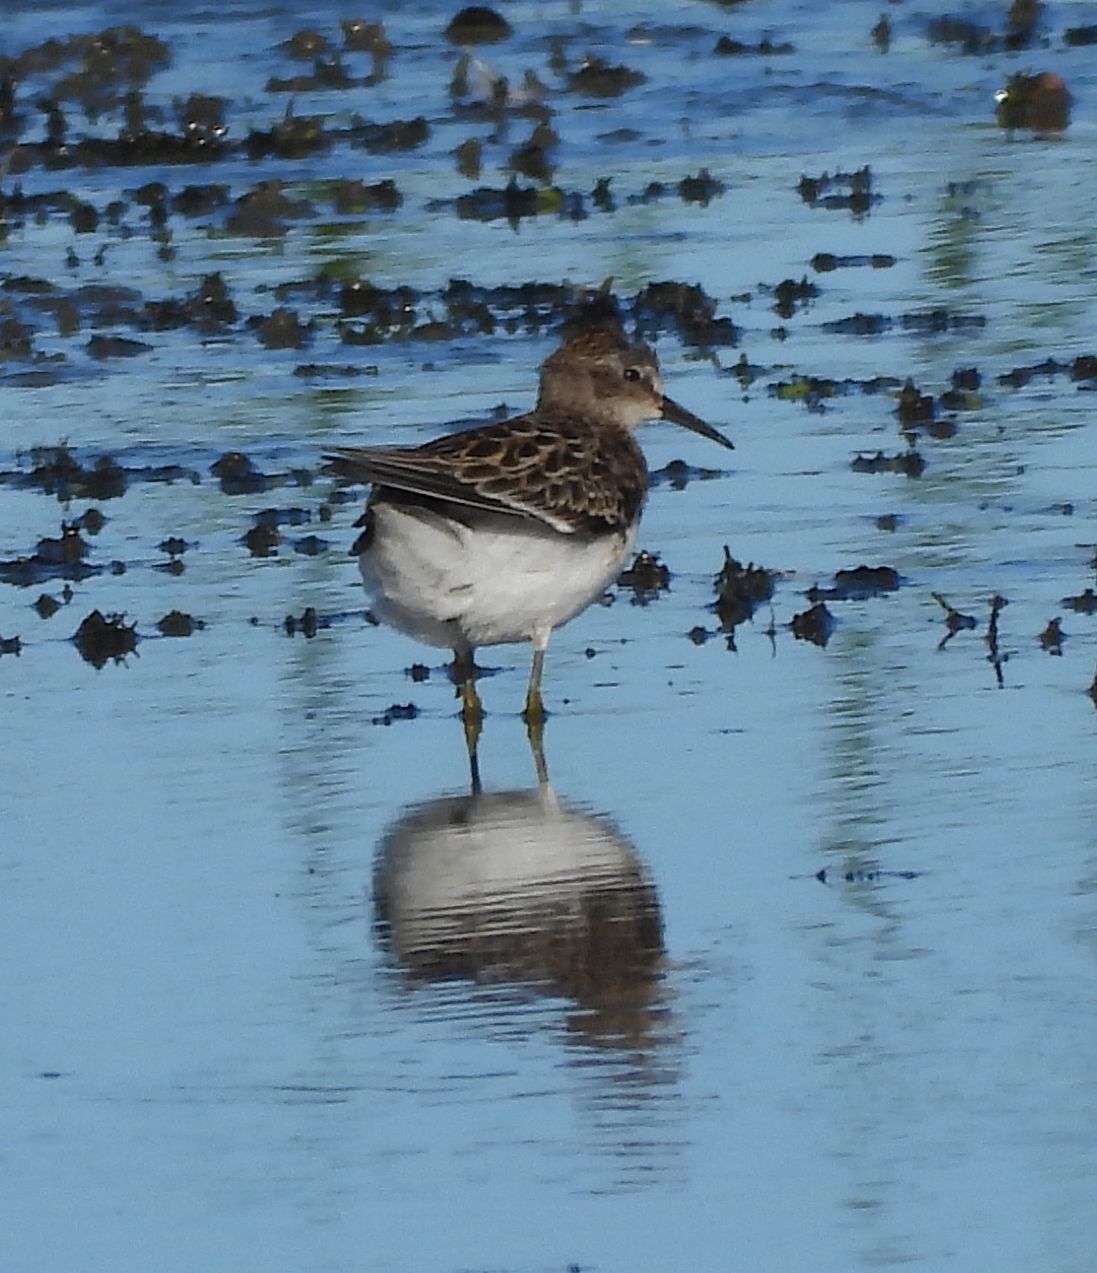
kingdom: Animalia
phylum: Chordata
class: Aves
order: Charadriiformes
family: Scolopacidae
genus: Calidris
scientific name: Calidris minutilla
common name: Least sandpiper
